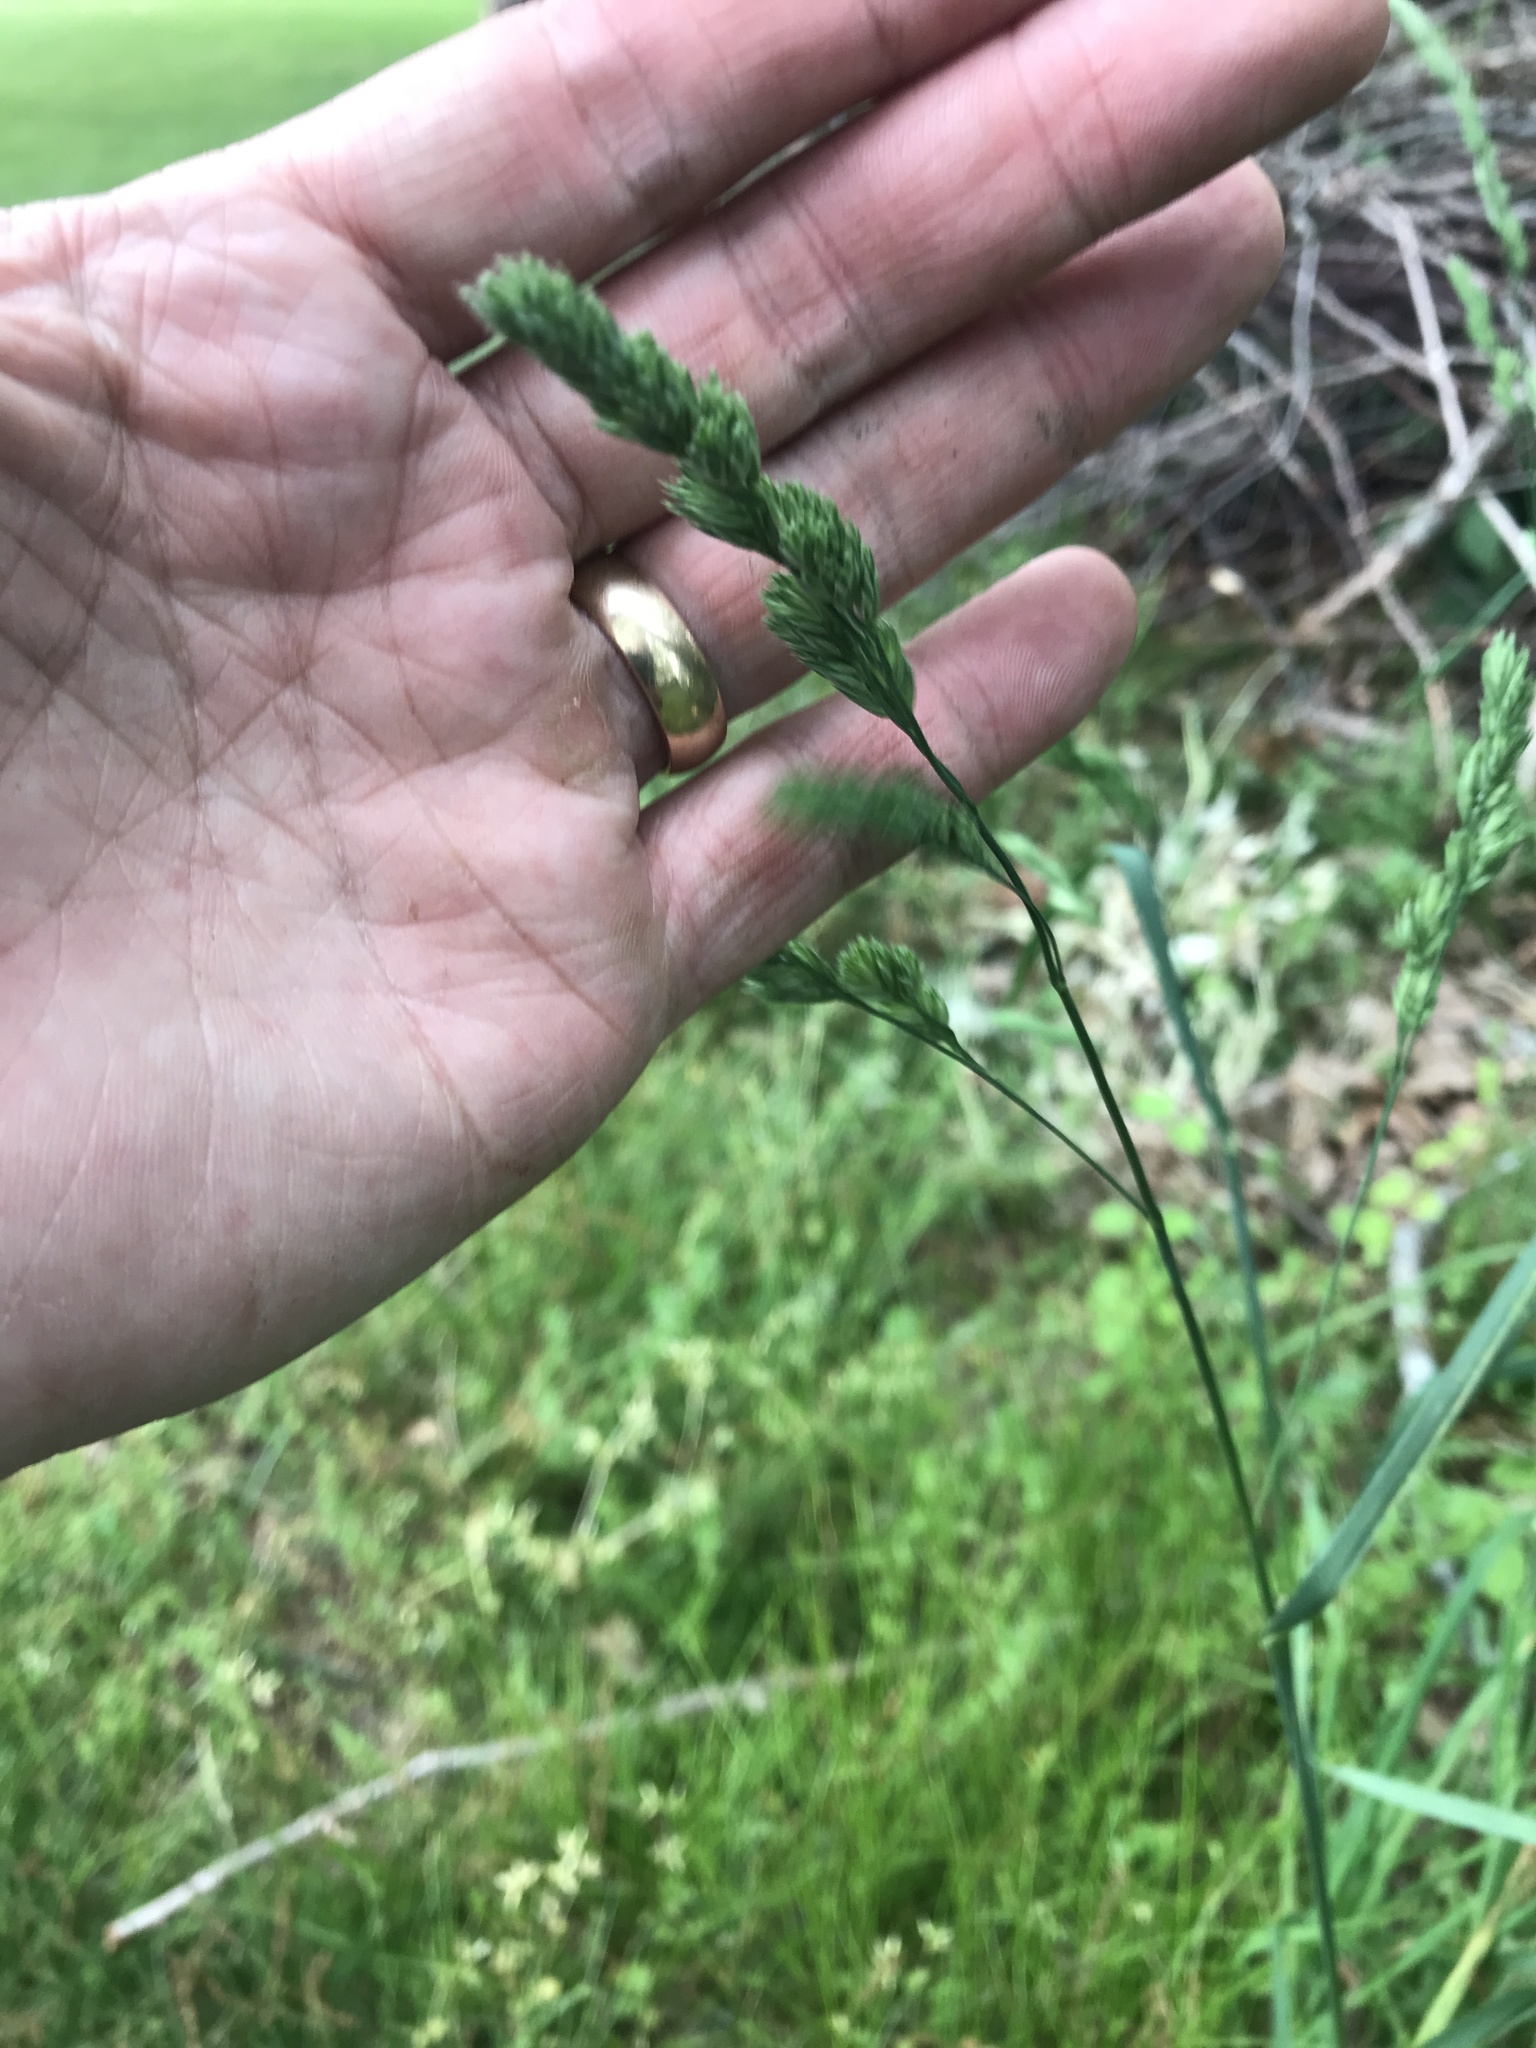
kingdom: Plantae
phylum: Tracheophyta
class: Liliopsida
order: Poales
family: Poaceae
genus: Dactylis
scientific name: Dactylis glomerata
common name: Orchardgrass
